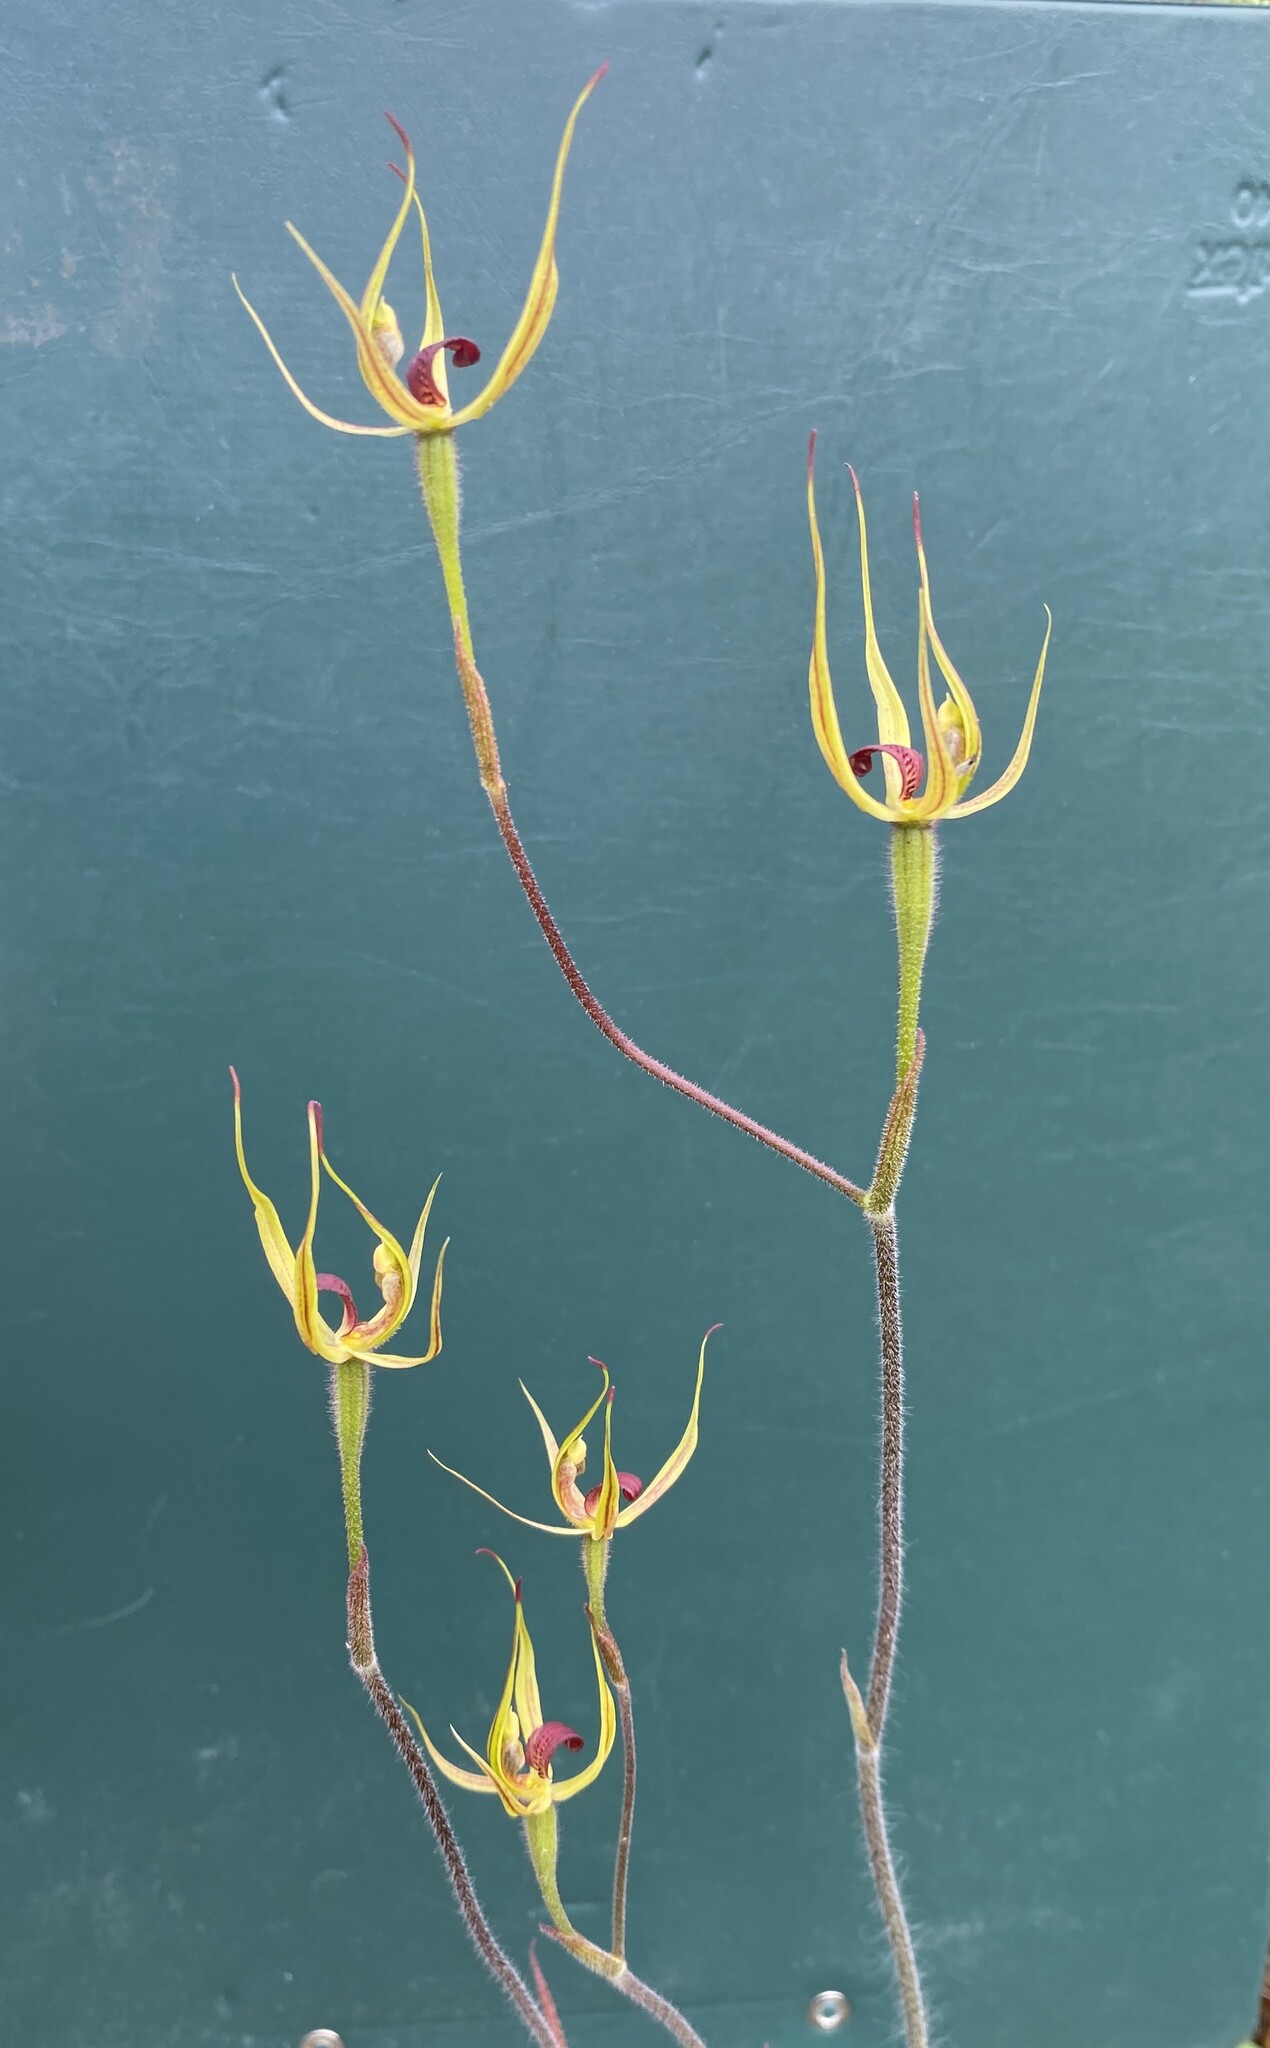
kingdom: Plantae
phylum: Tracheophyta
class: Liliopsida
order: Asparagales
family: Orchidaceae
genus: Caladenia
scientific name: Caladenia leptochila
